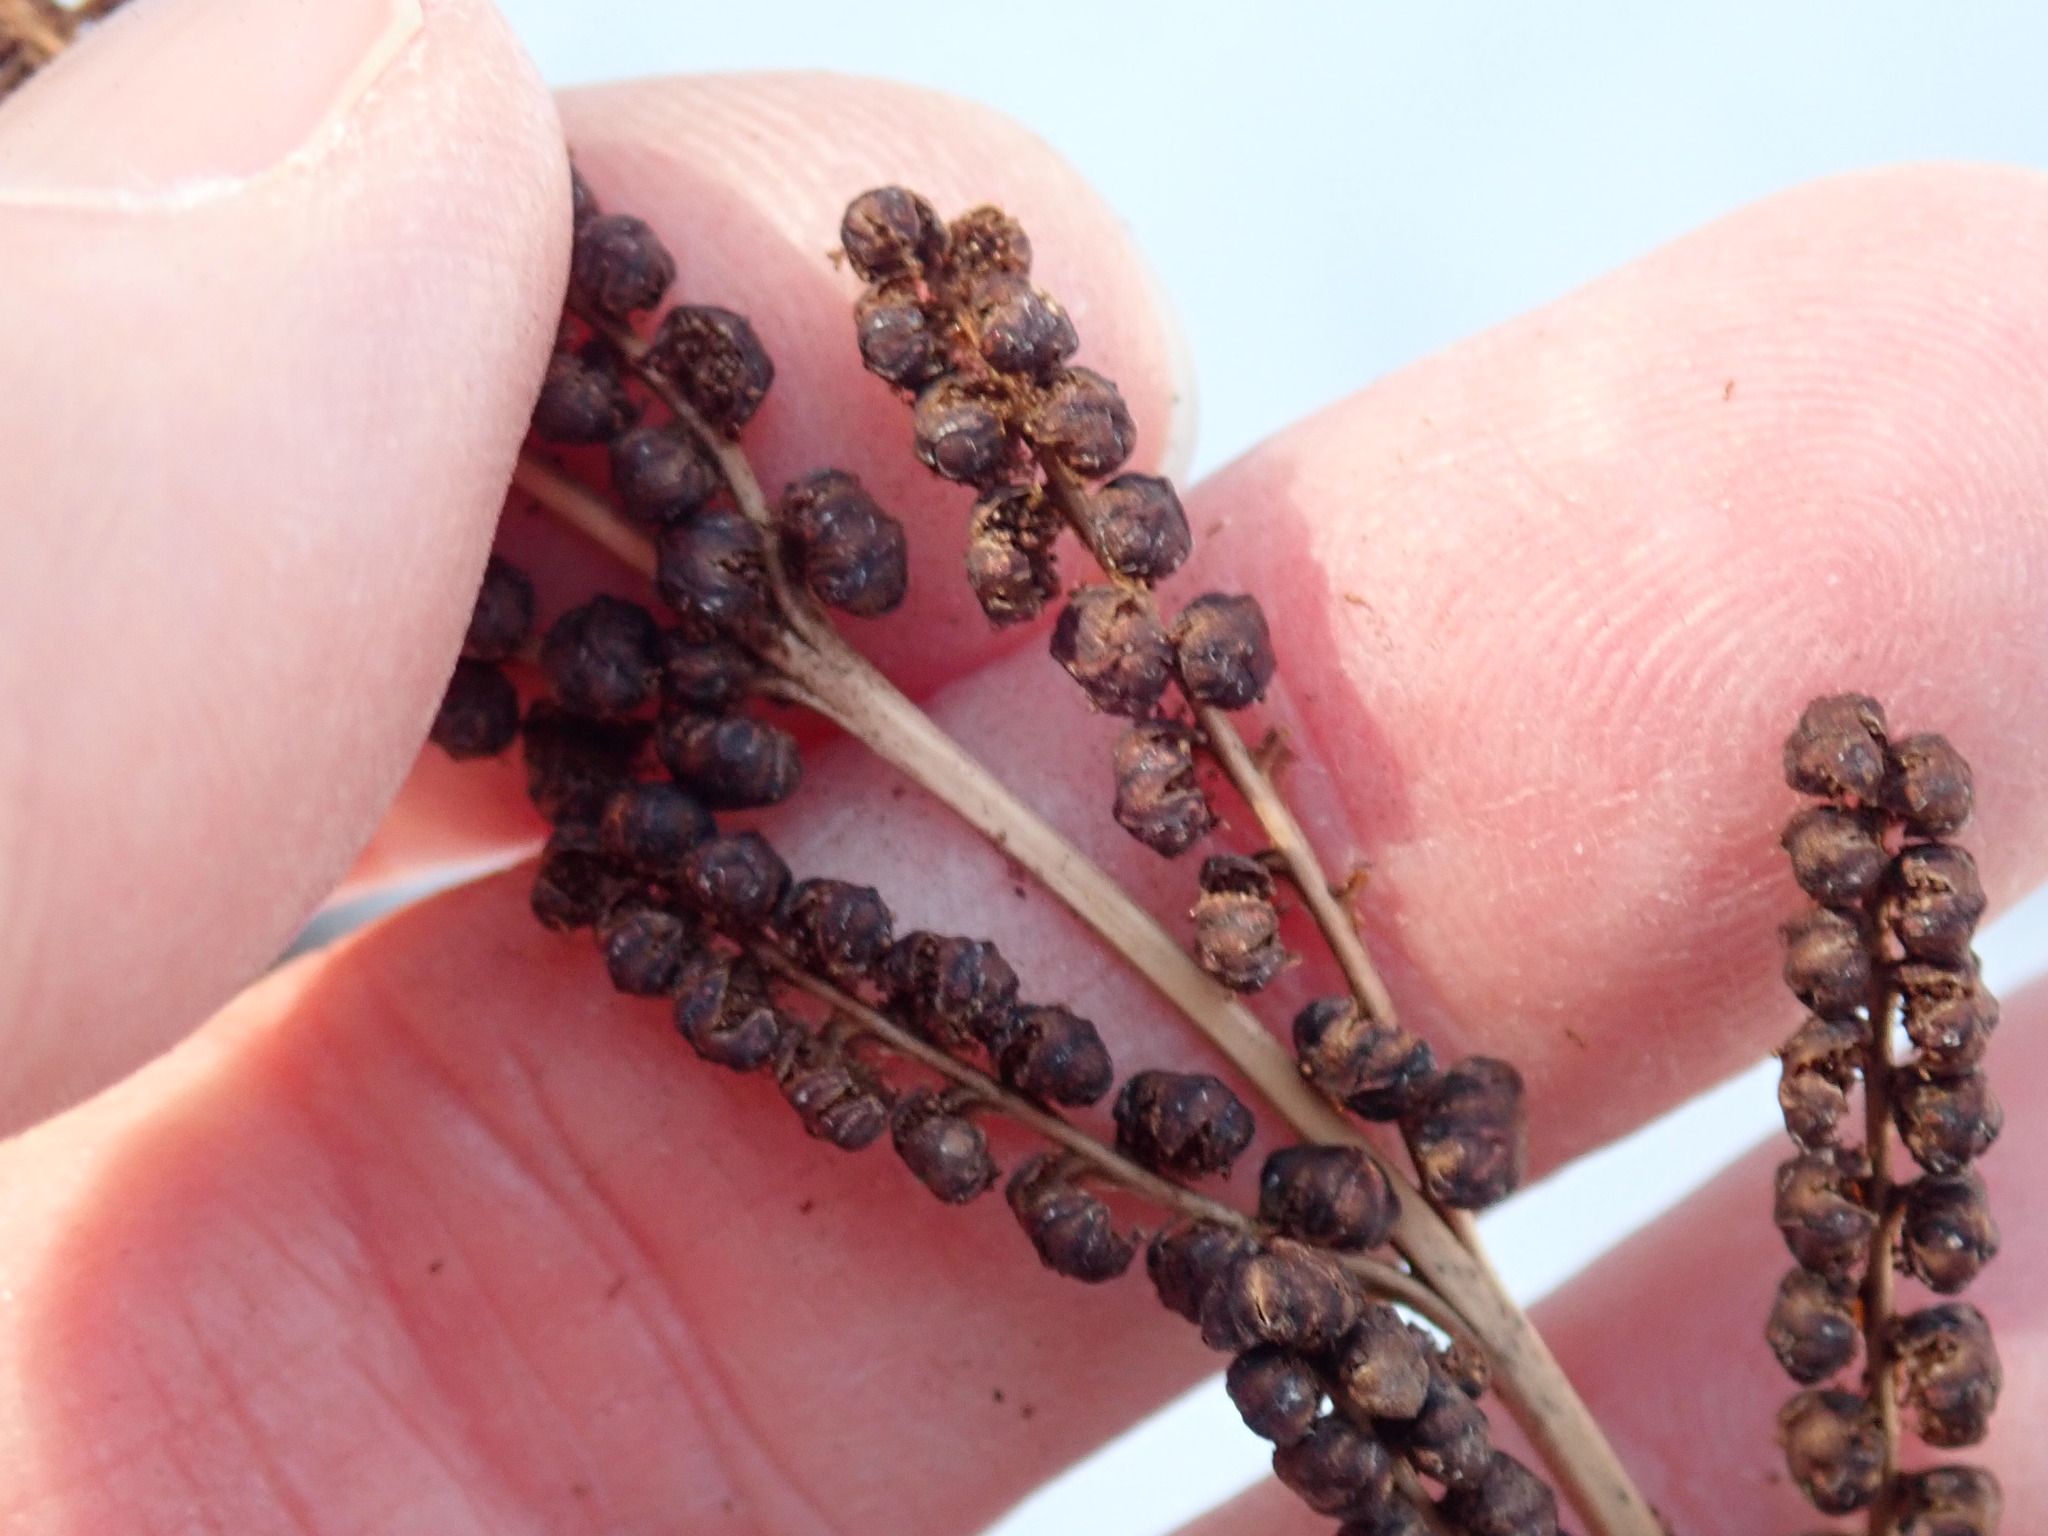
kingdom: Plantae
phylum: Tracheophyta
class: Polypodiopsida
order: Polypodiales
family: Onocleaceae
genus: Onoclea
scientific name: Onoclea sensibilis
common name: Sensitive fern
